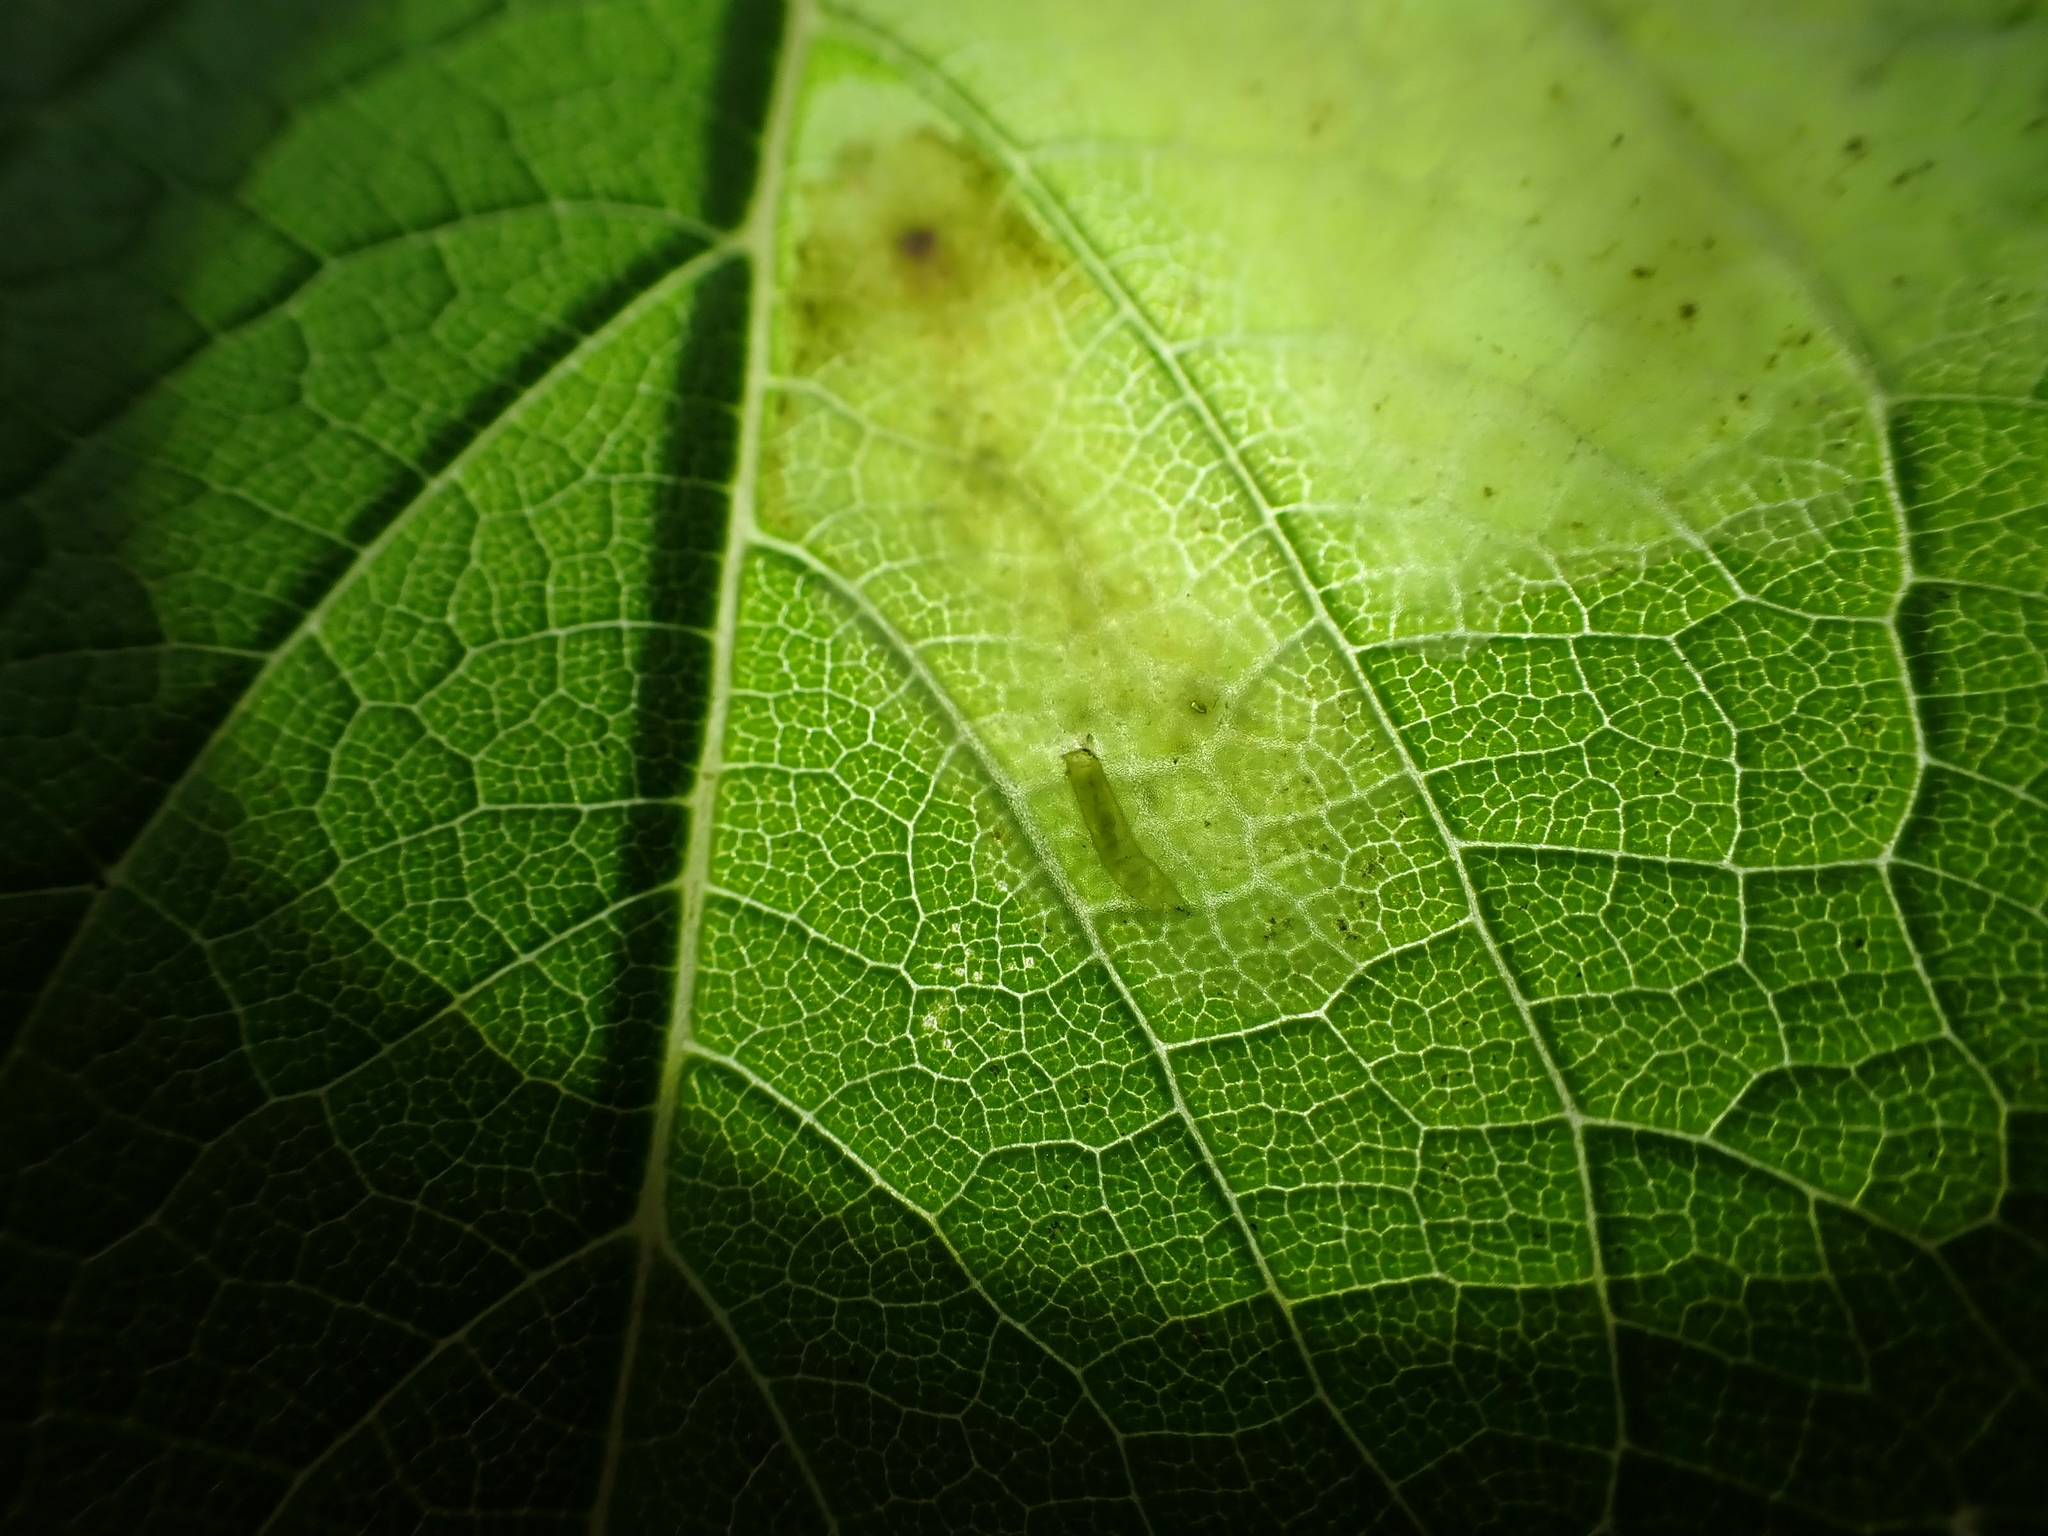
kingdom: Animalia
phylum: Arthropoda
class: Insecta
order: Diptera
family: Agromyzidae
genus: Calycomyza
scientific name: Calycomyza flavinotum
